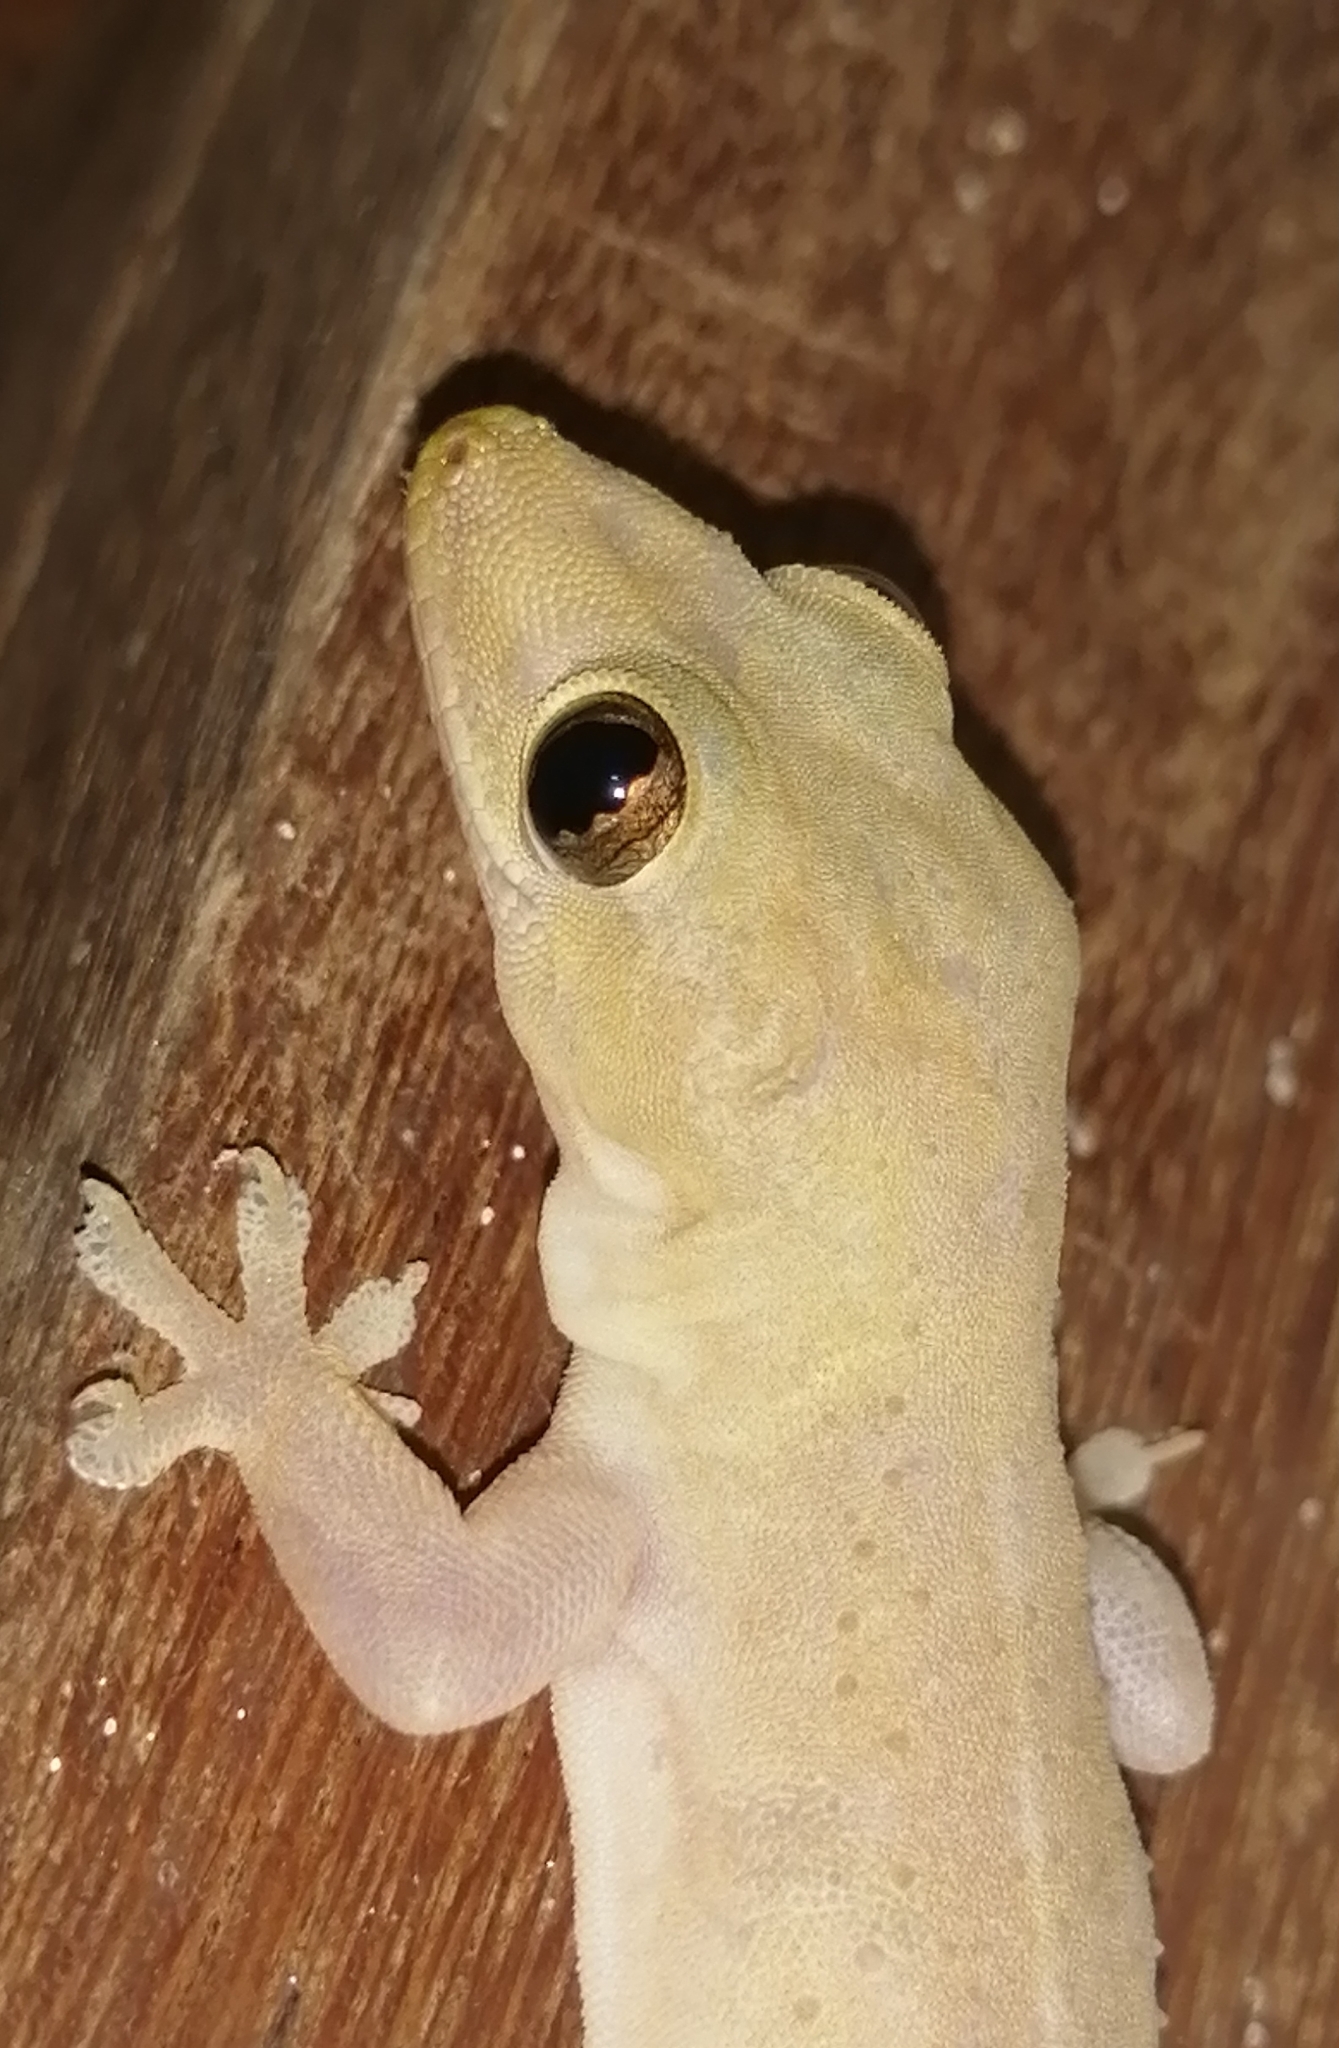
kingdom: Animalia
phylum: Chordata
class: Squamata
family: Gekkonidae
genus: Hemidactylus
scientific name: Hemidactylus frenatus
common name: Common house gecko
